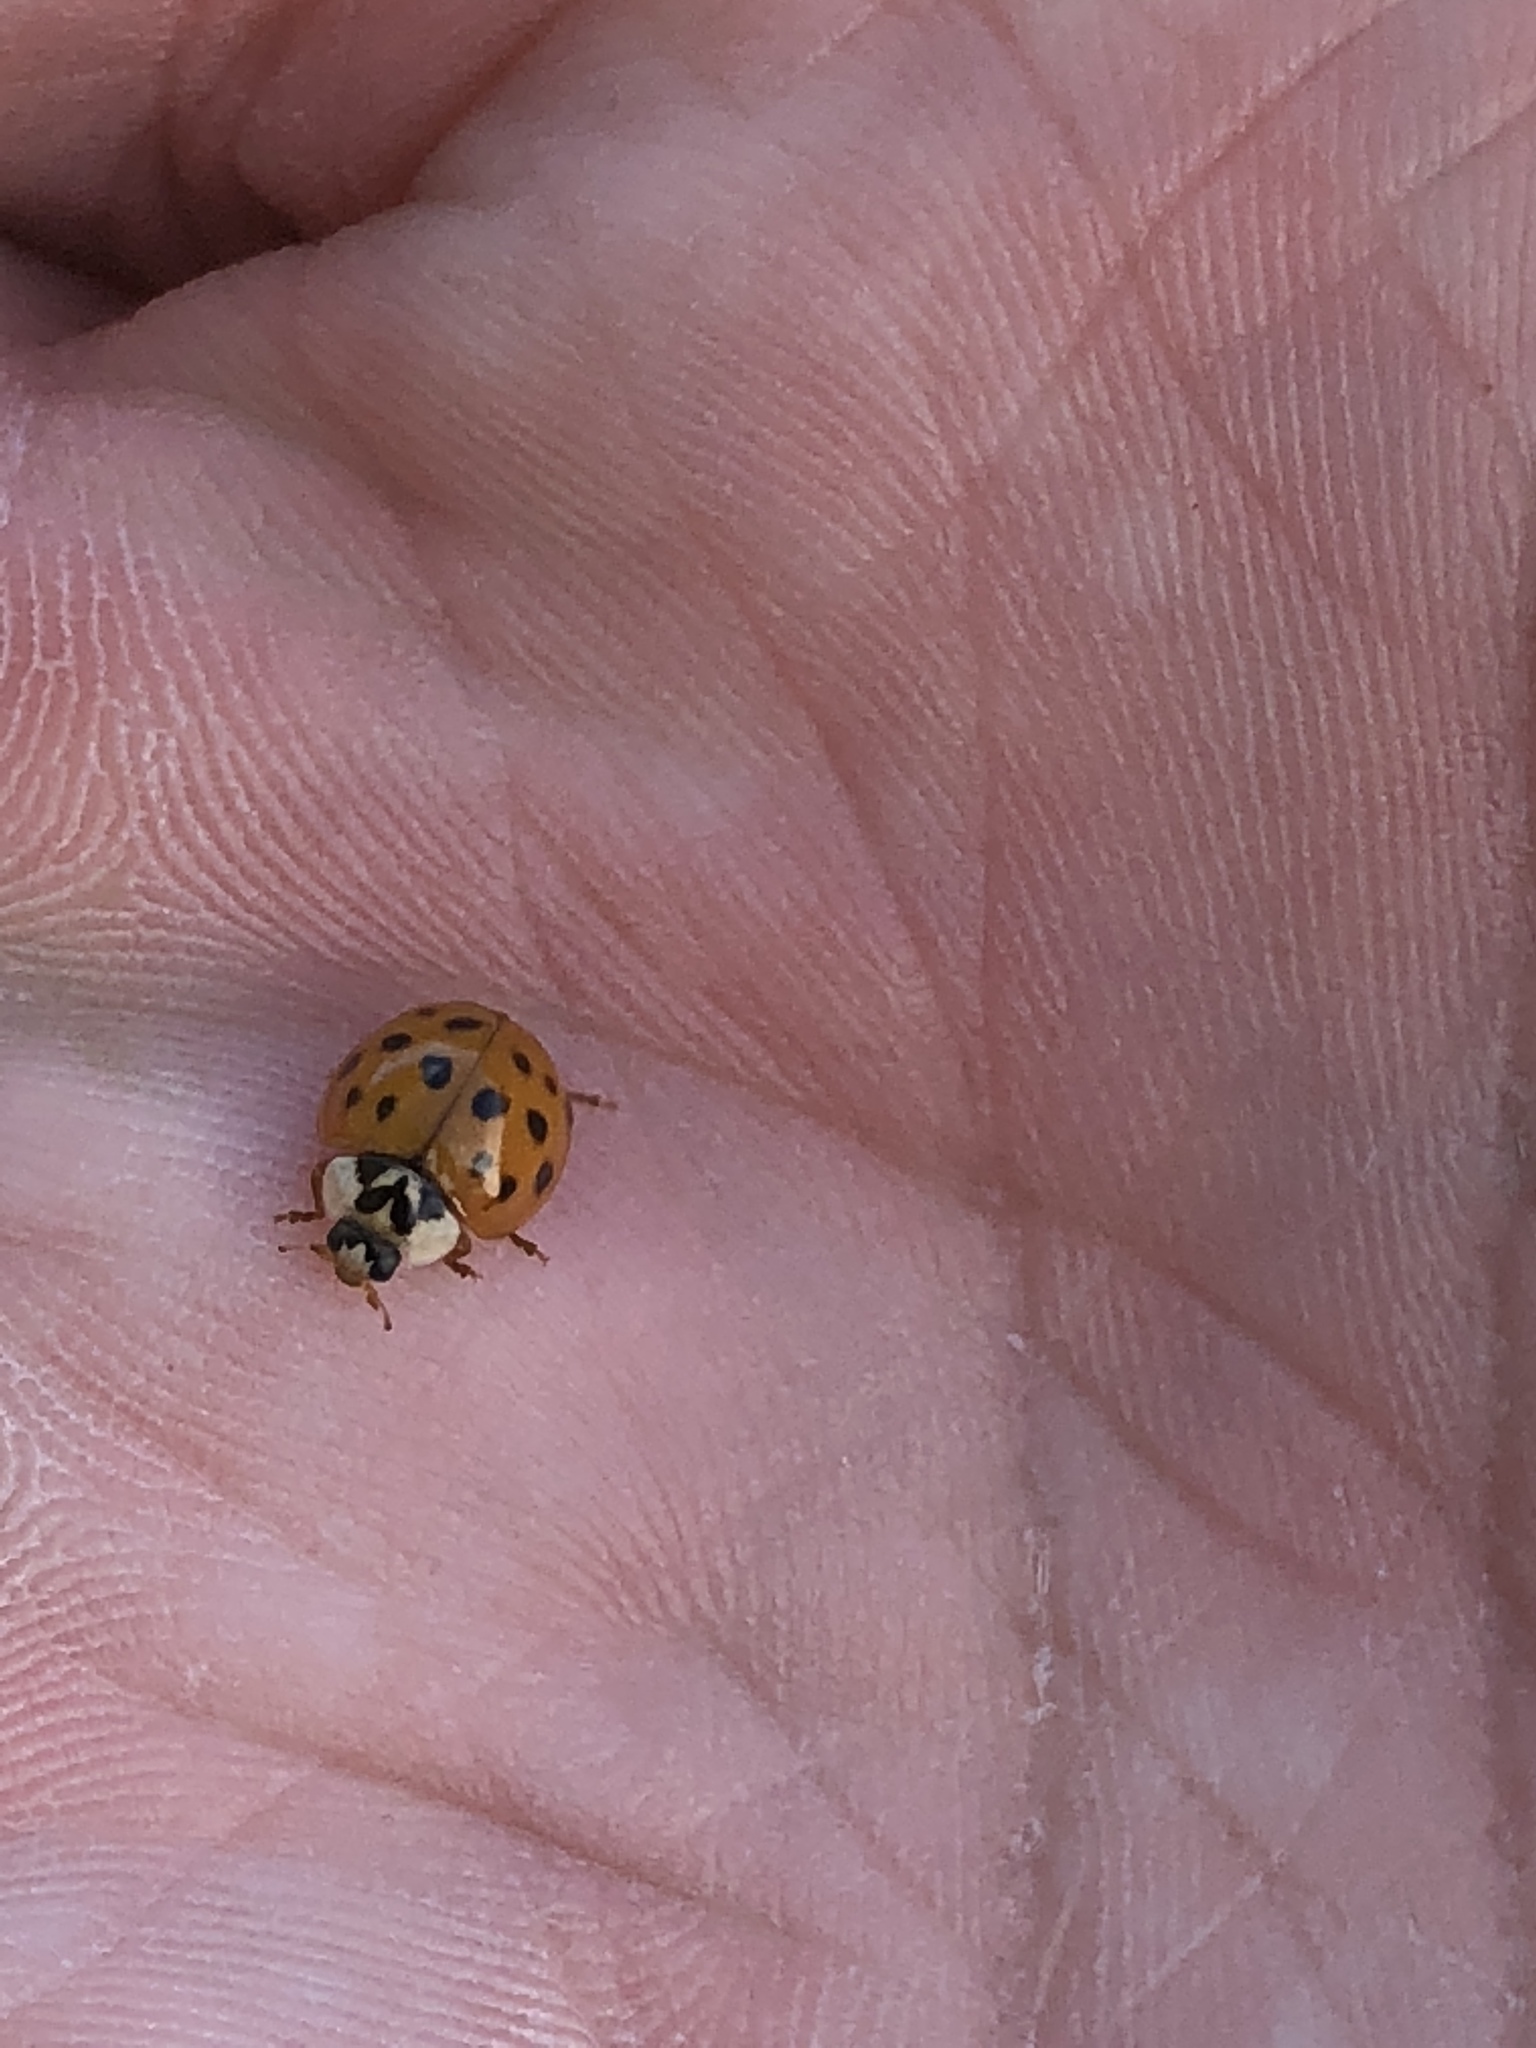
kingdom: Animalia
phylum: Arthropoda
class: Insecta
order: Coleoptera
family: Coccinellidae
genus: Harmonia
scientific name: Harmonia axyridis
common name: Harlequin ladybird
